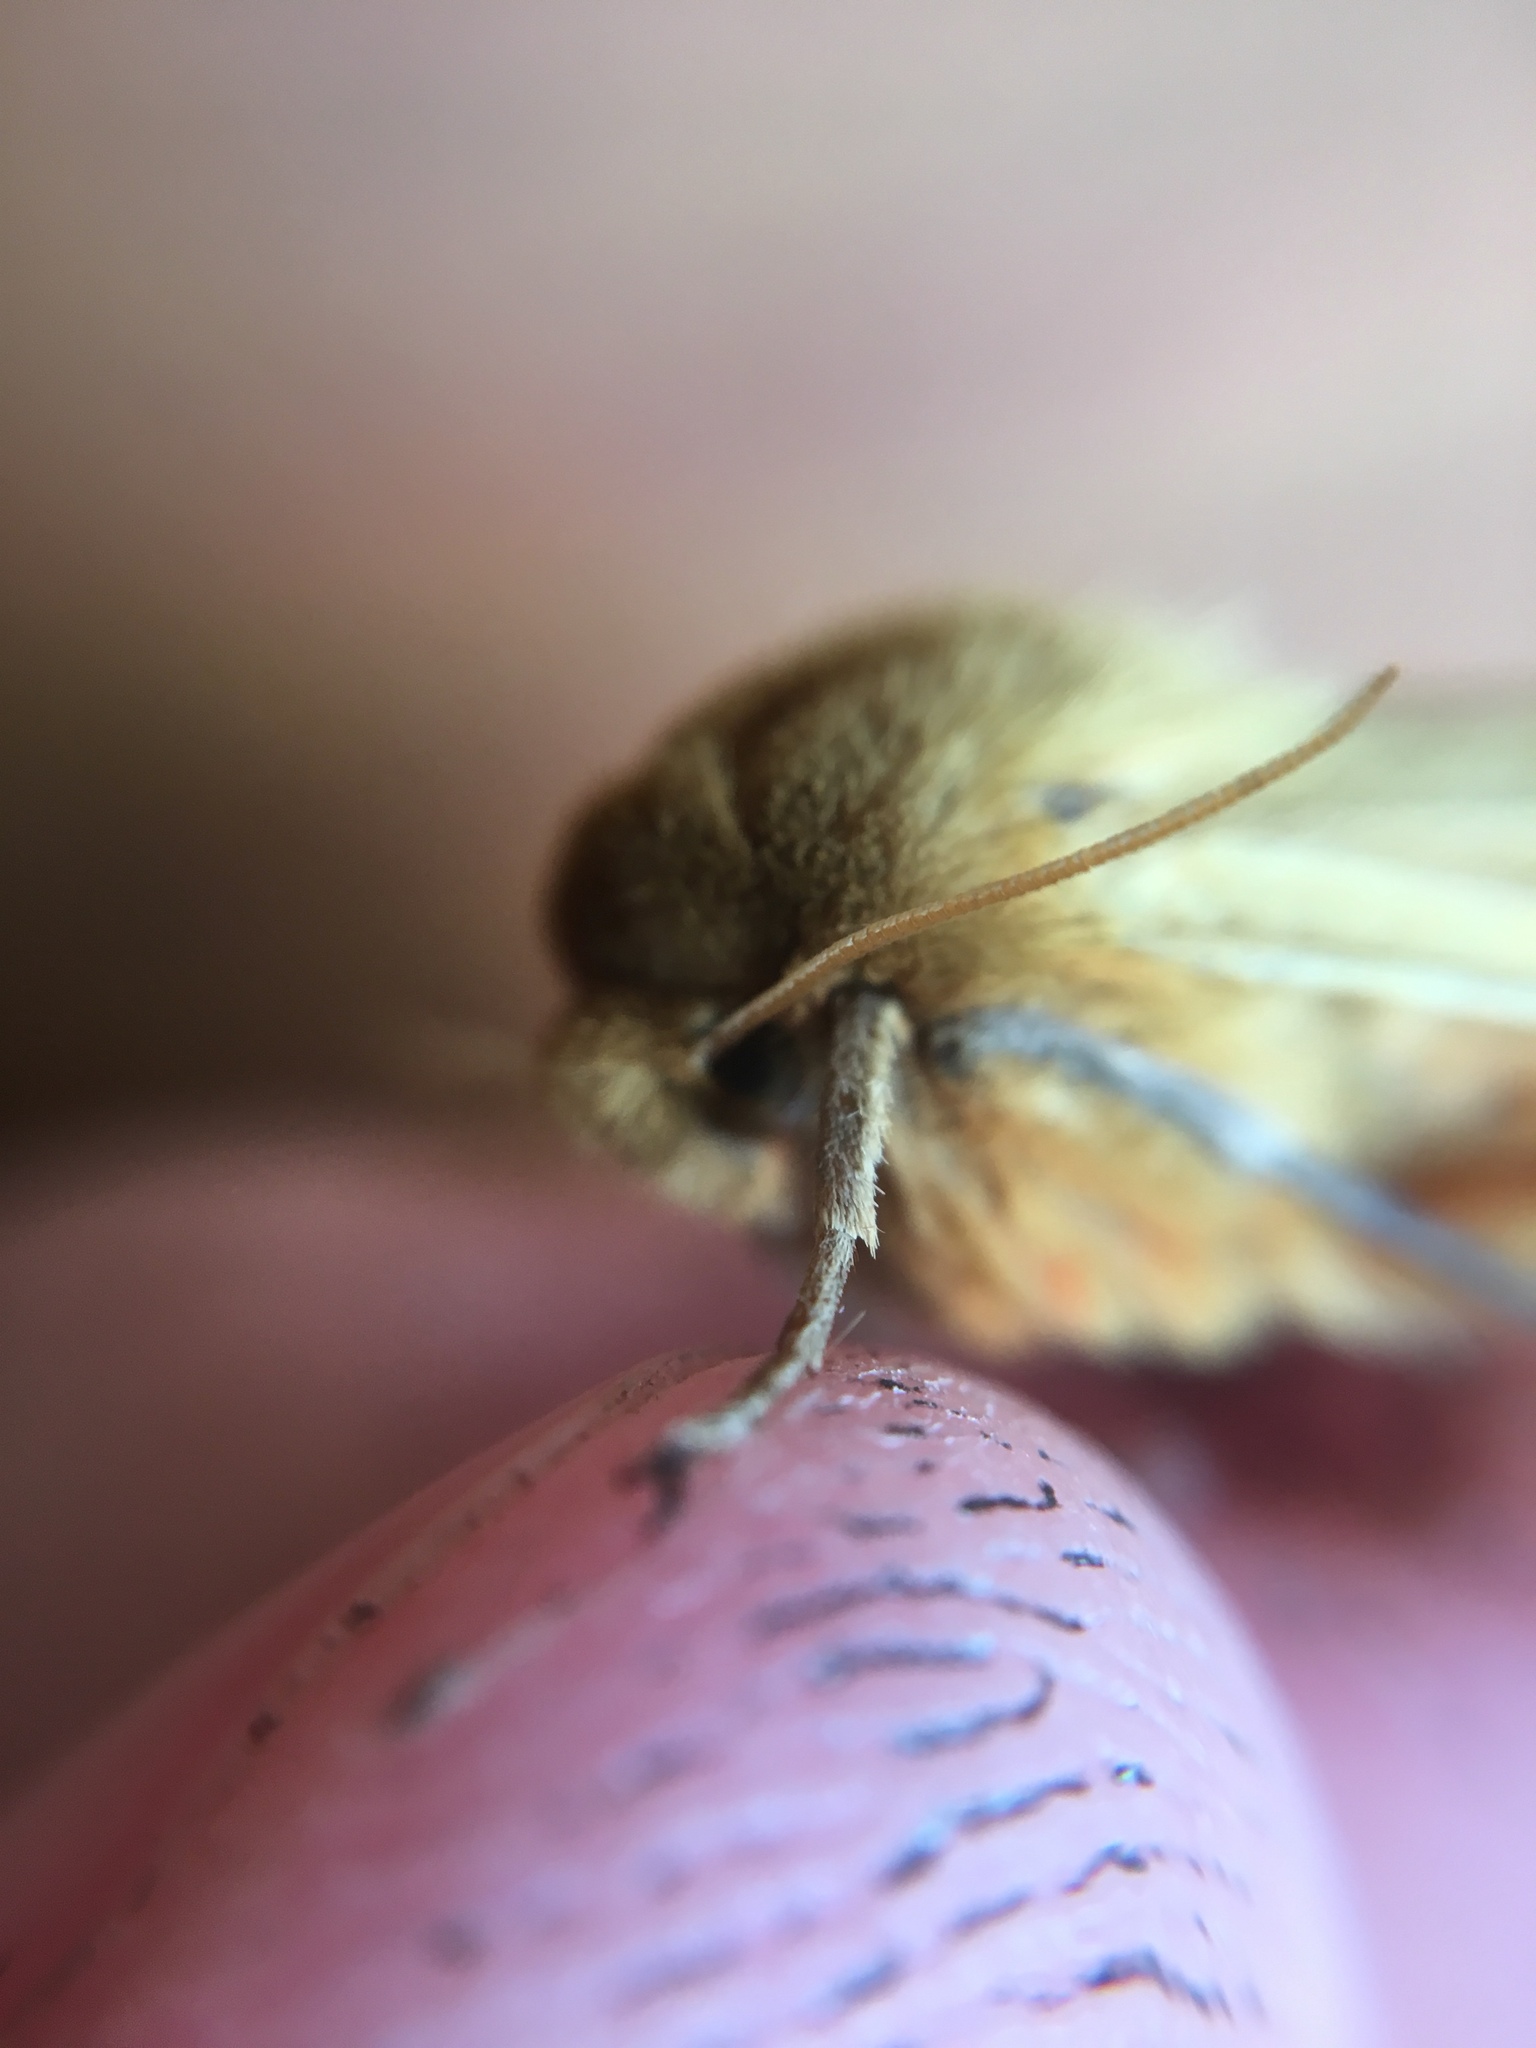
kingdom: Animalia
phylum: Arthropoda
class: Insecta
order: Lepidoptera
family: Erebidae
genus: Pyrrharctia
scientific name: Pyrrharctia isabella
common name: Isabella tiger moth
